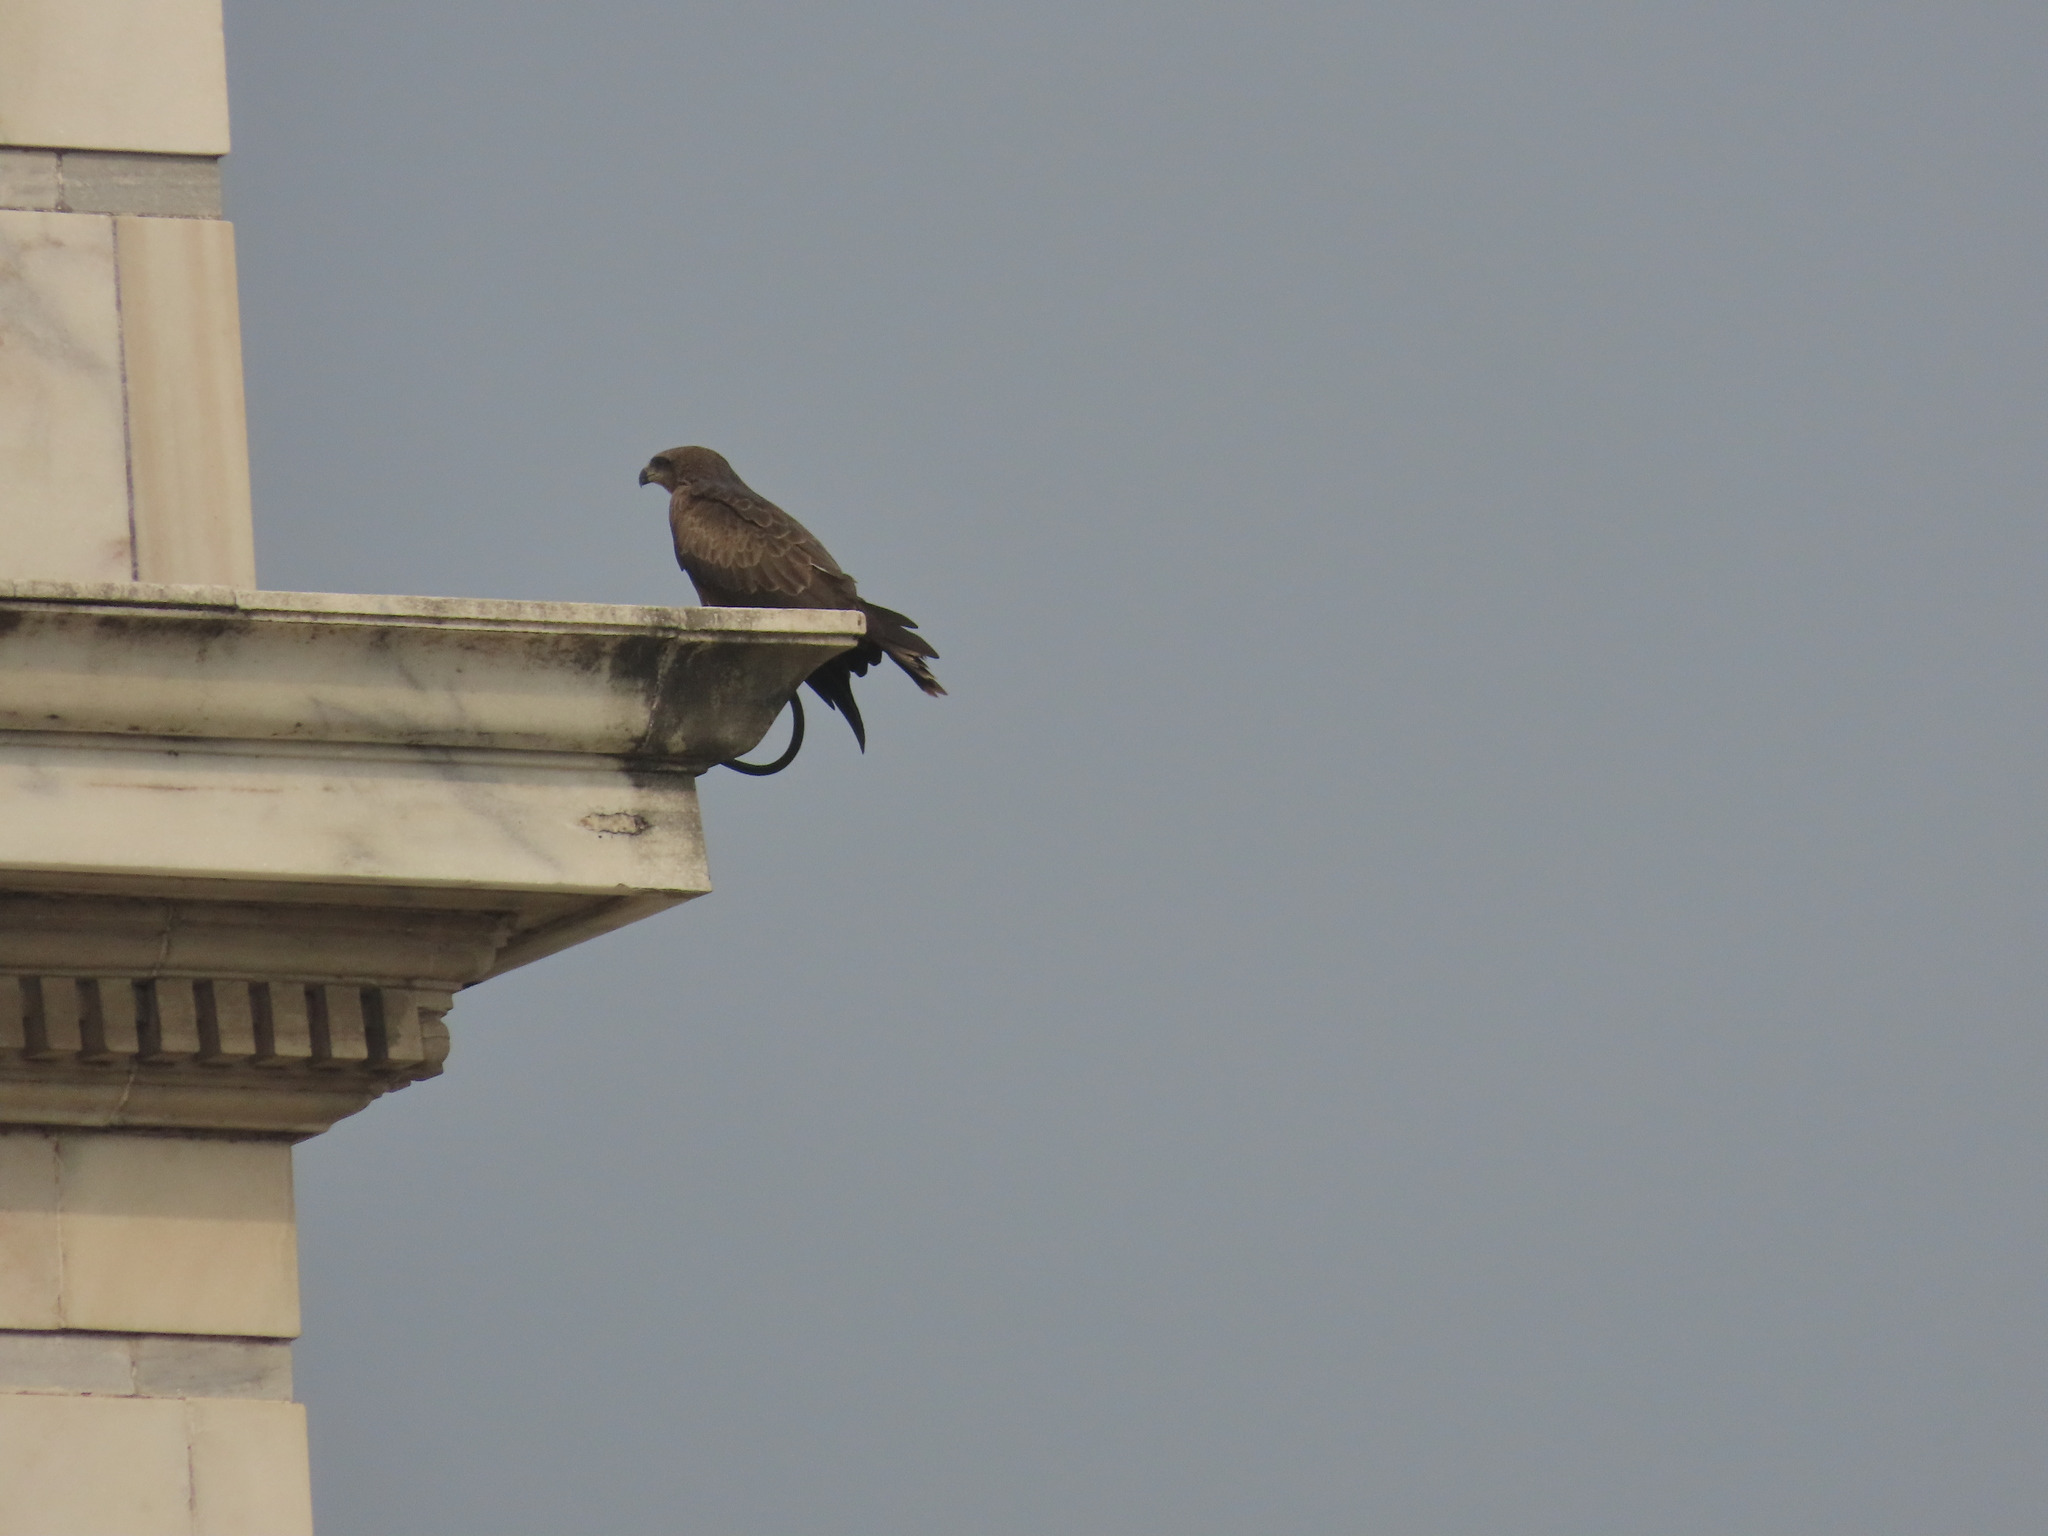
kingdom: Animalia
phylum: Chordata
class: Aves
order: Accipitriformes
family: Accipitridae
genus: Milvus
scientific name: Milvus migrans
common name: Black kite
